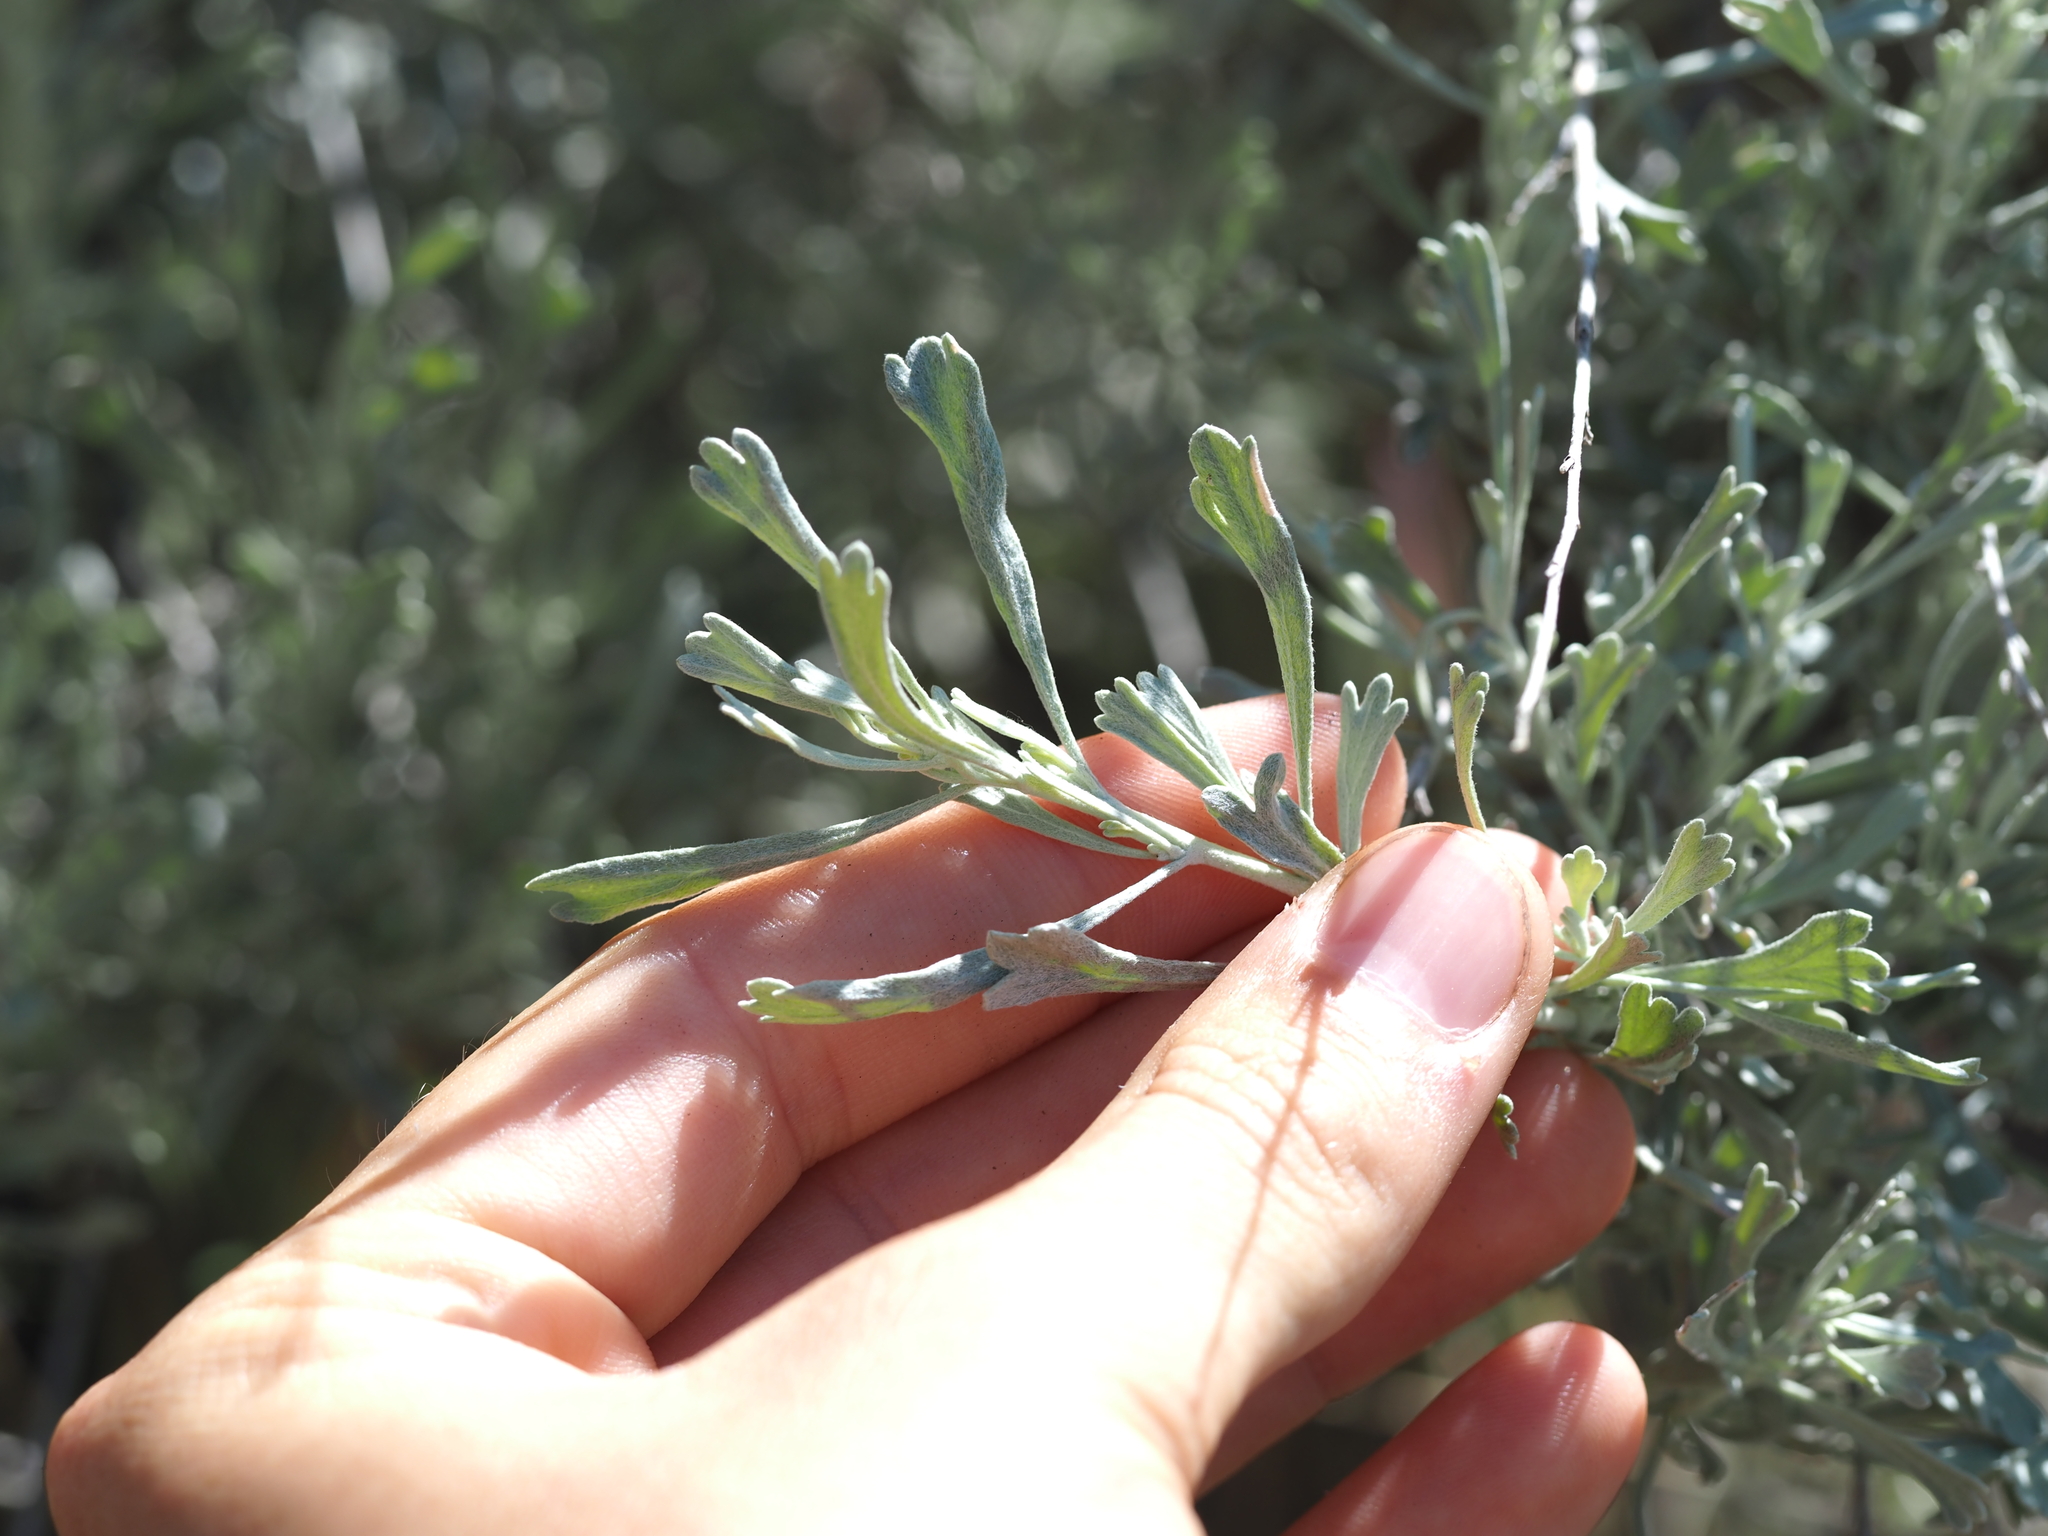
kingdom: Plantae
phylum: Tracheophyta
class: Magnoliopsida
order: Asterales
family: Asteraceae
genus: Artemisia
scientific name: Artemisia tridentata
